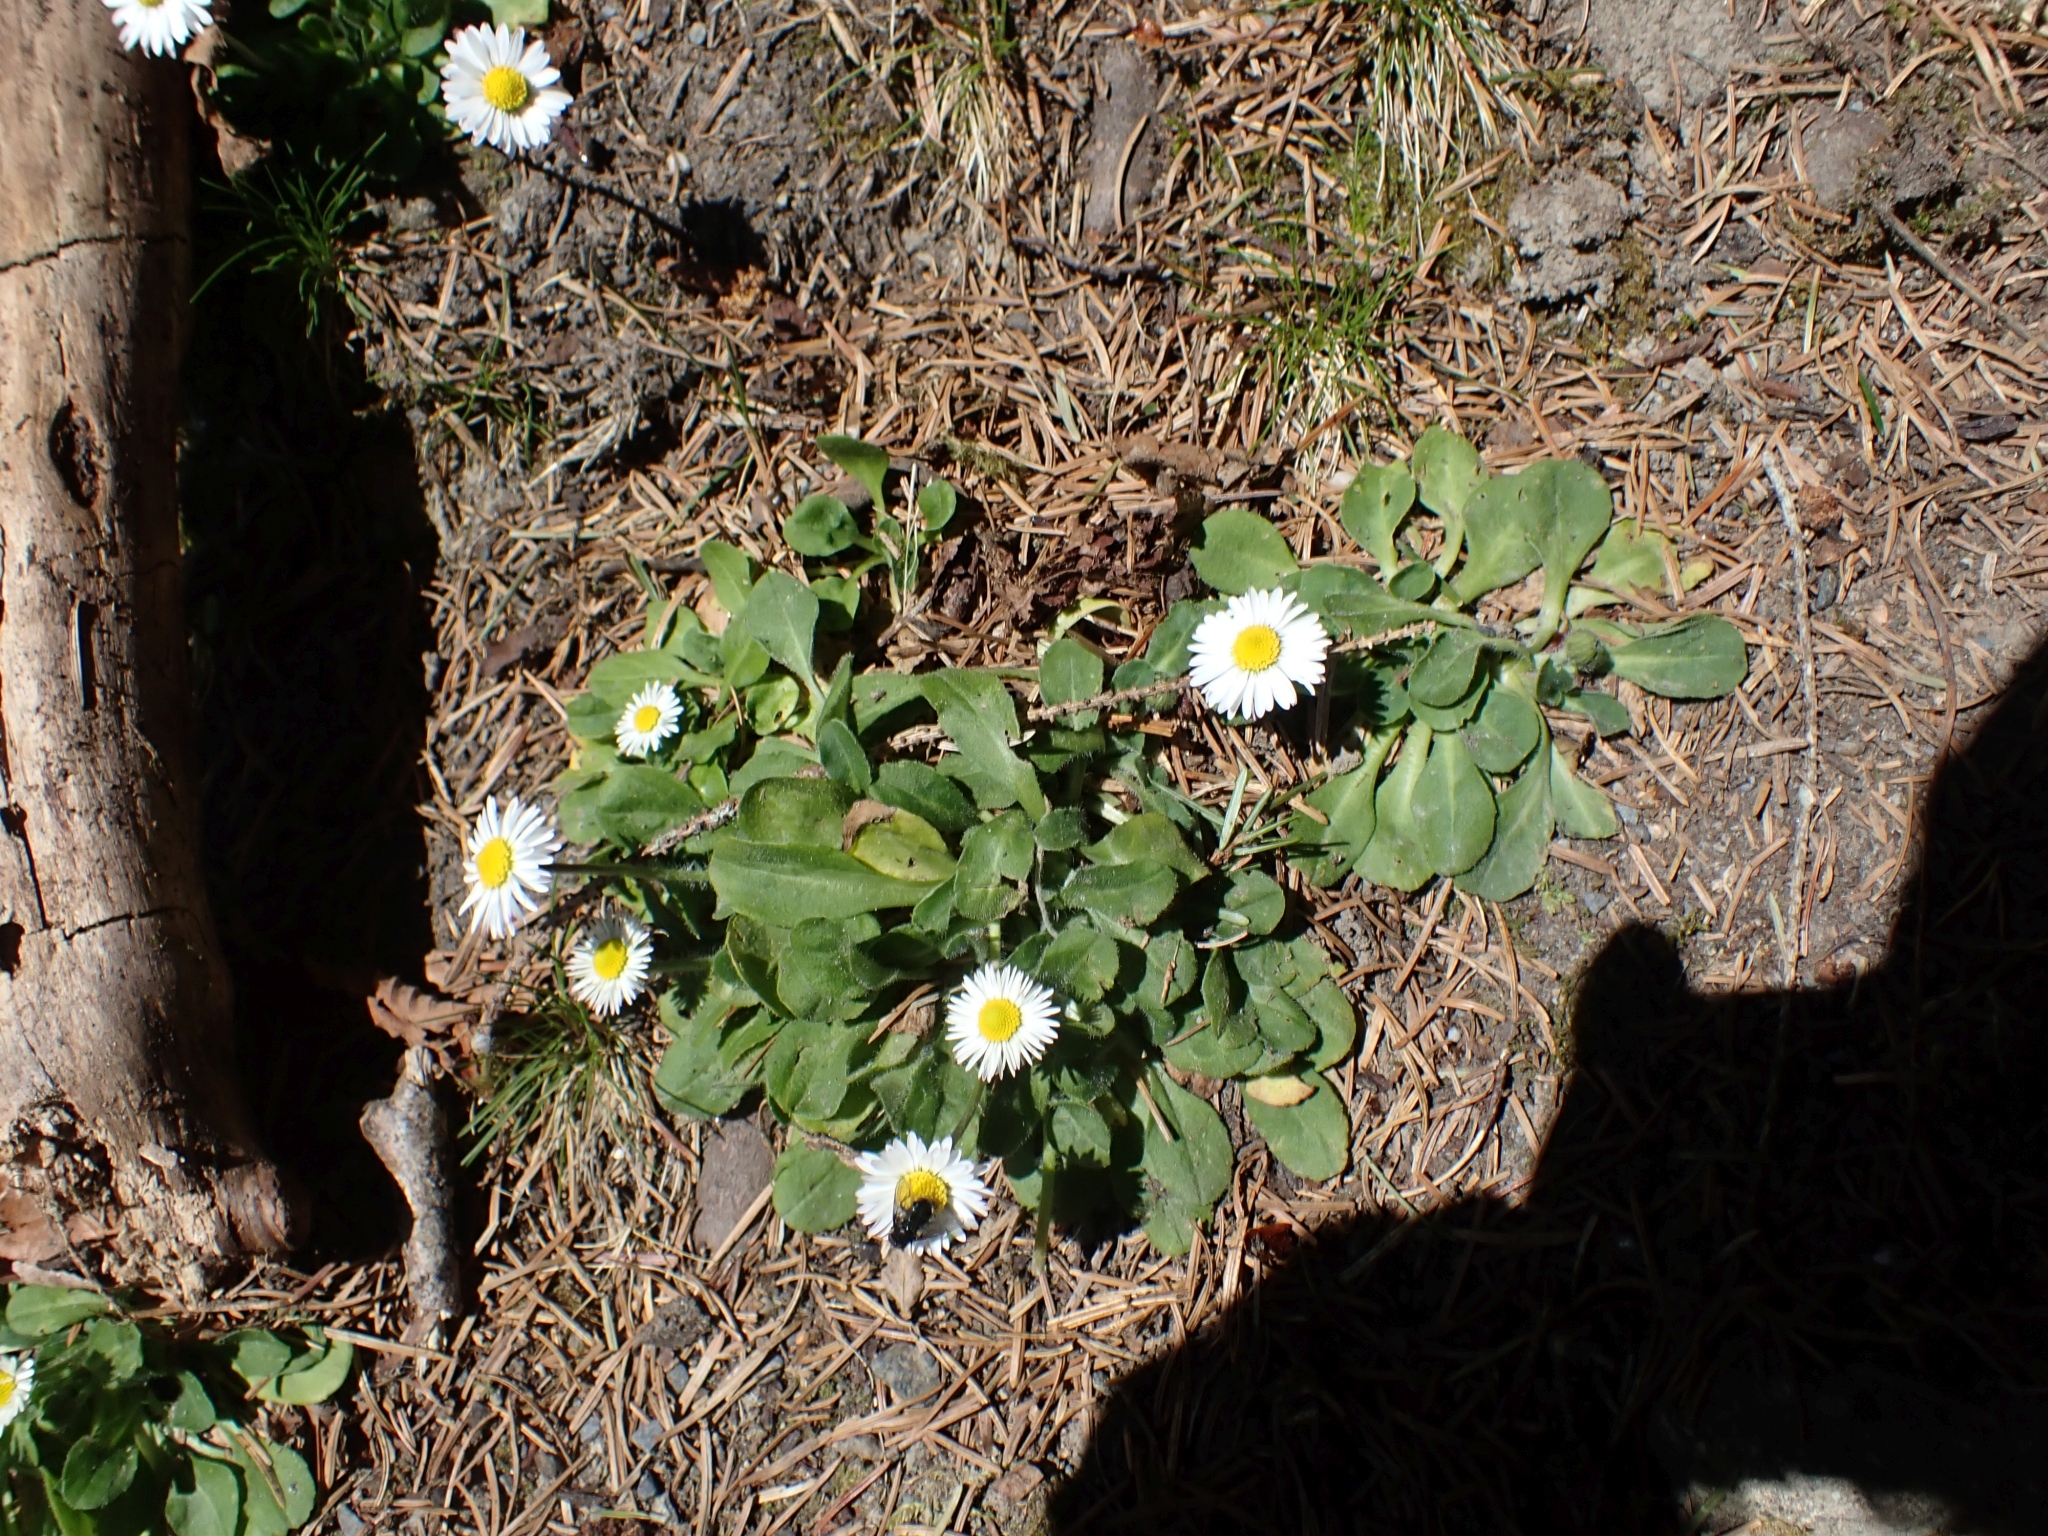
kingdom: Plantae
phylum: Tracheophyta
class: Magnoliopsida
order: Asterales
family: Asteraceae
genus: Bellis
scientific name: Bellis perennis
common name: Lawndaisy
